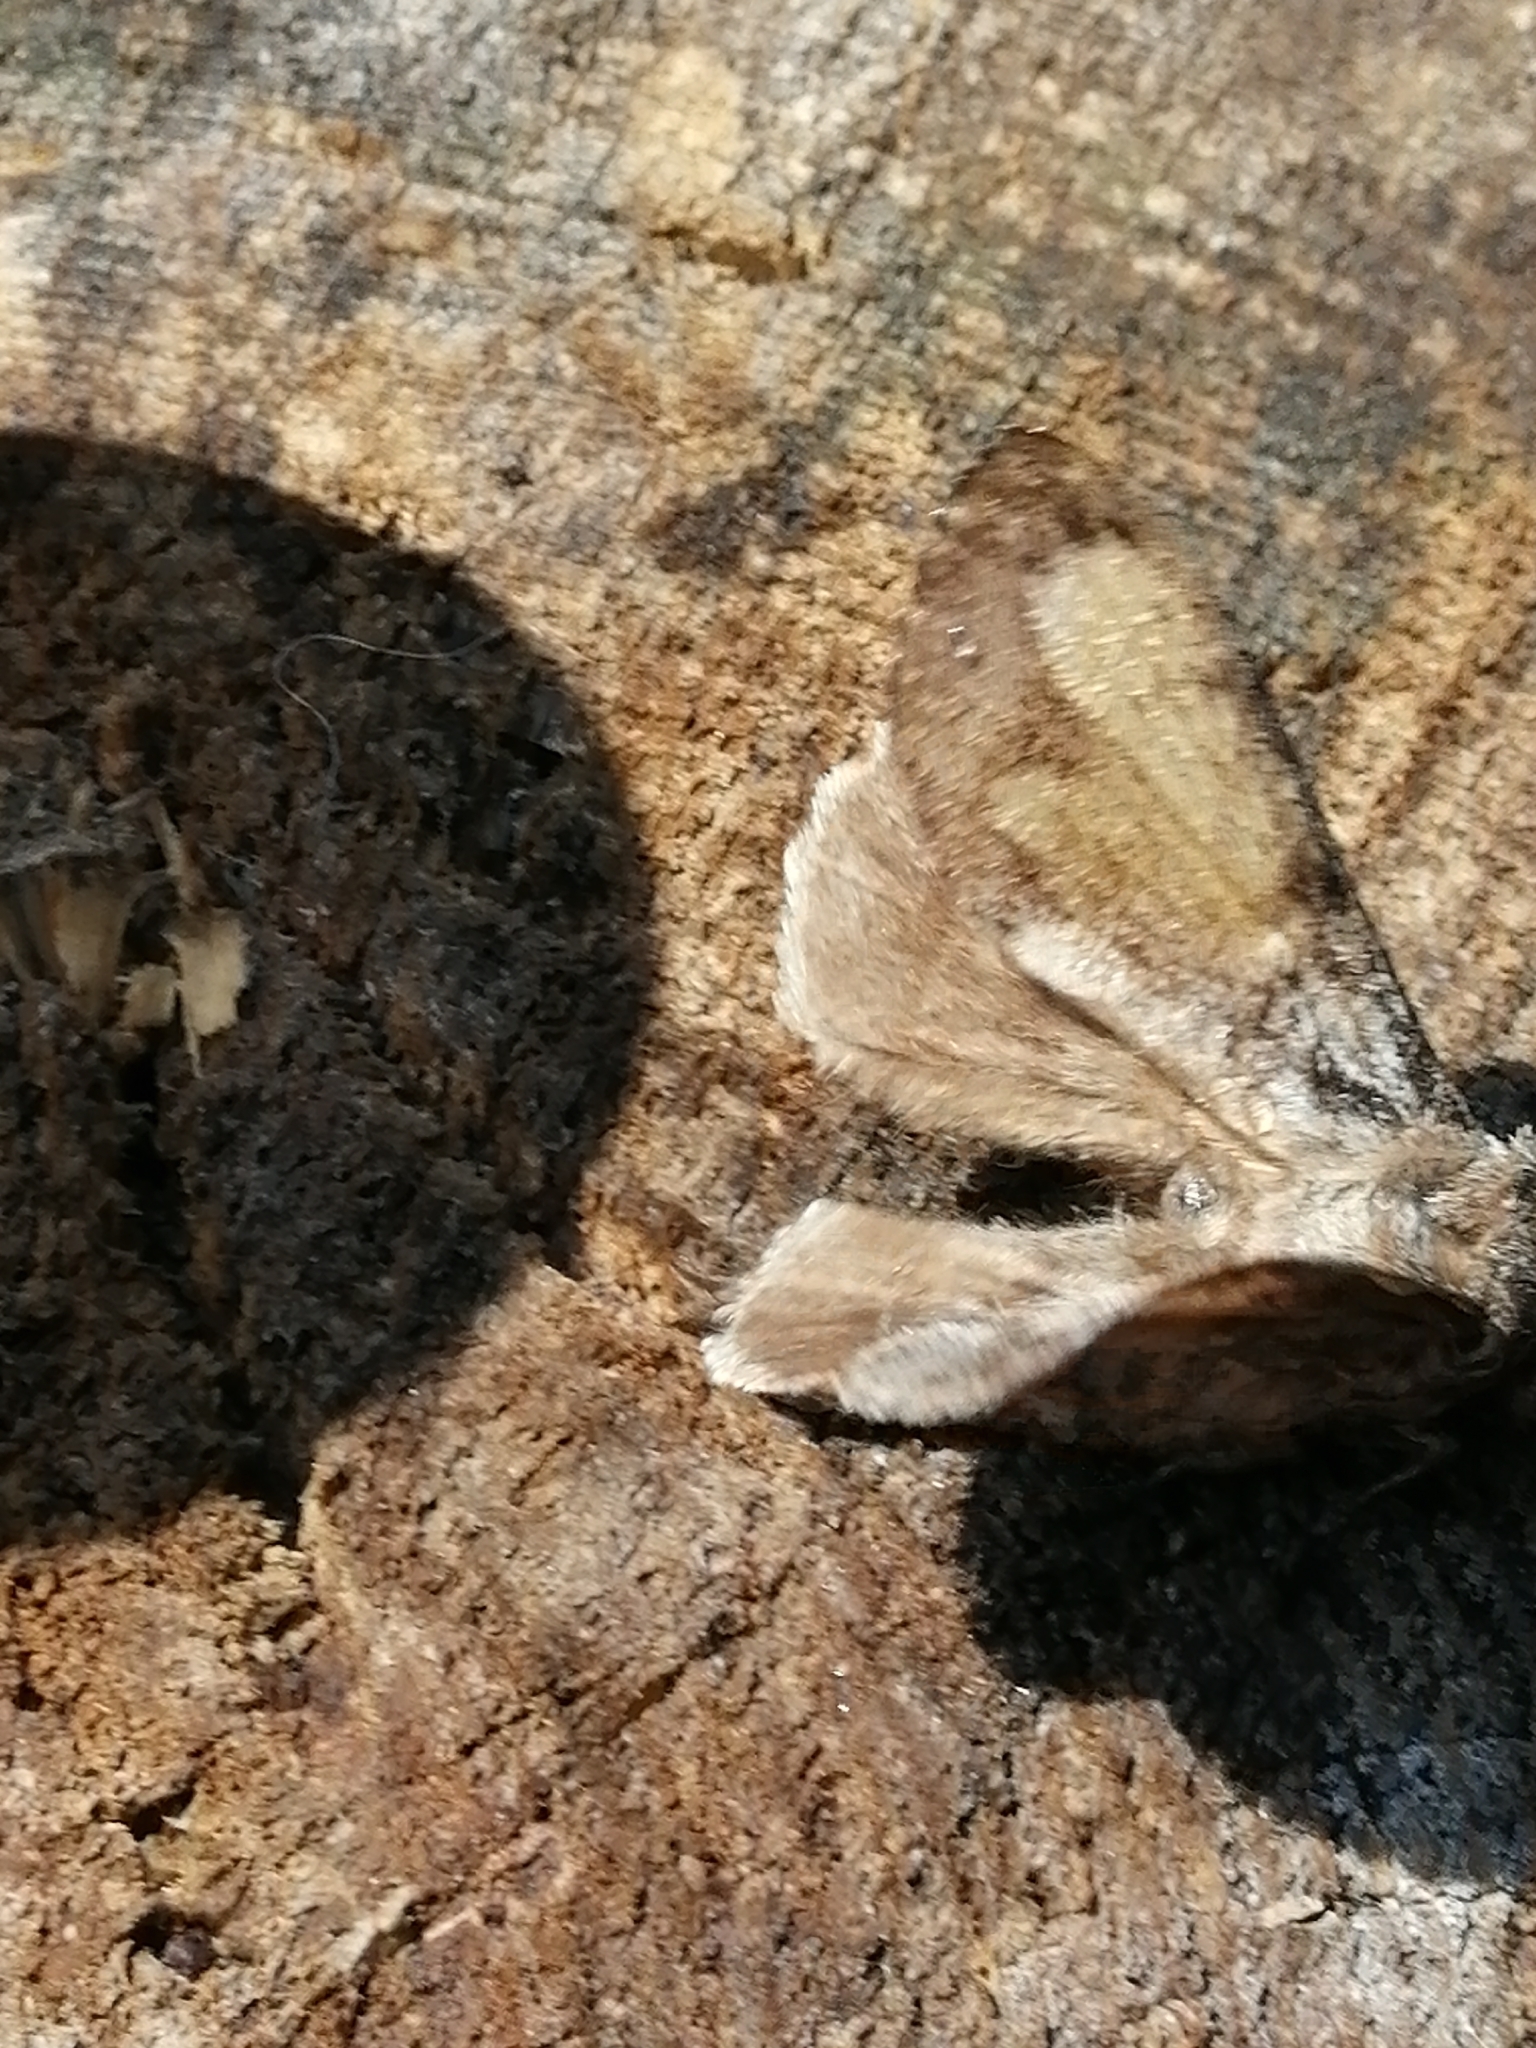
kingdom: Animalia
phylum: Arthropoda
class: Insecta
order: Lepidoptera
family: Lasiocampidae
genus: Dendrolimus
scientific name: Dendrolimus superans
